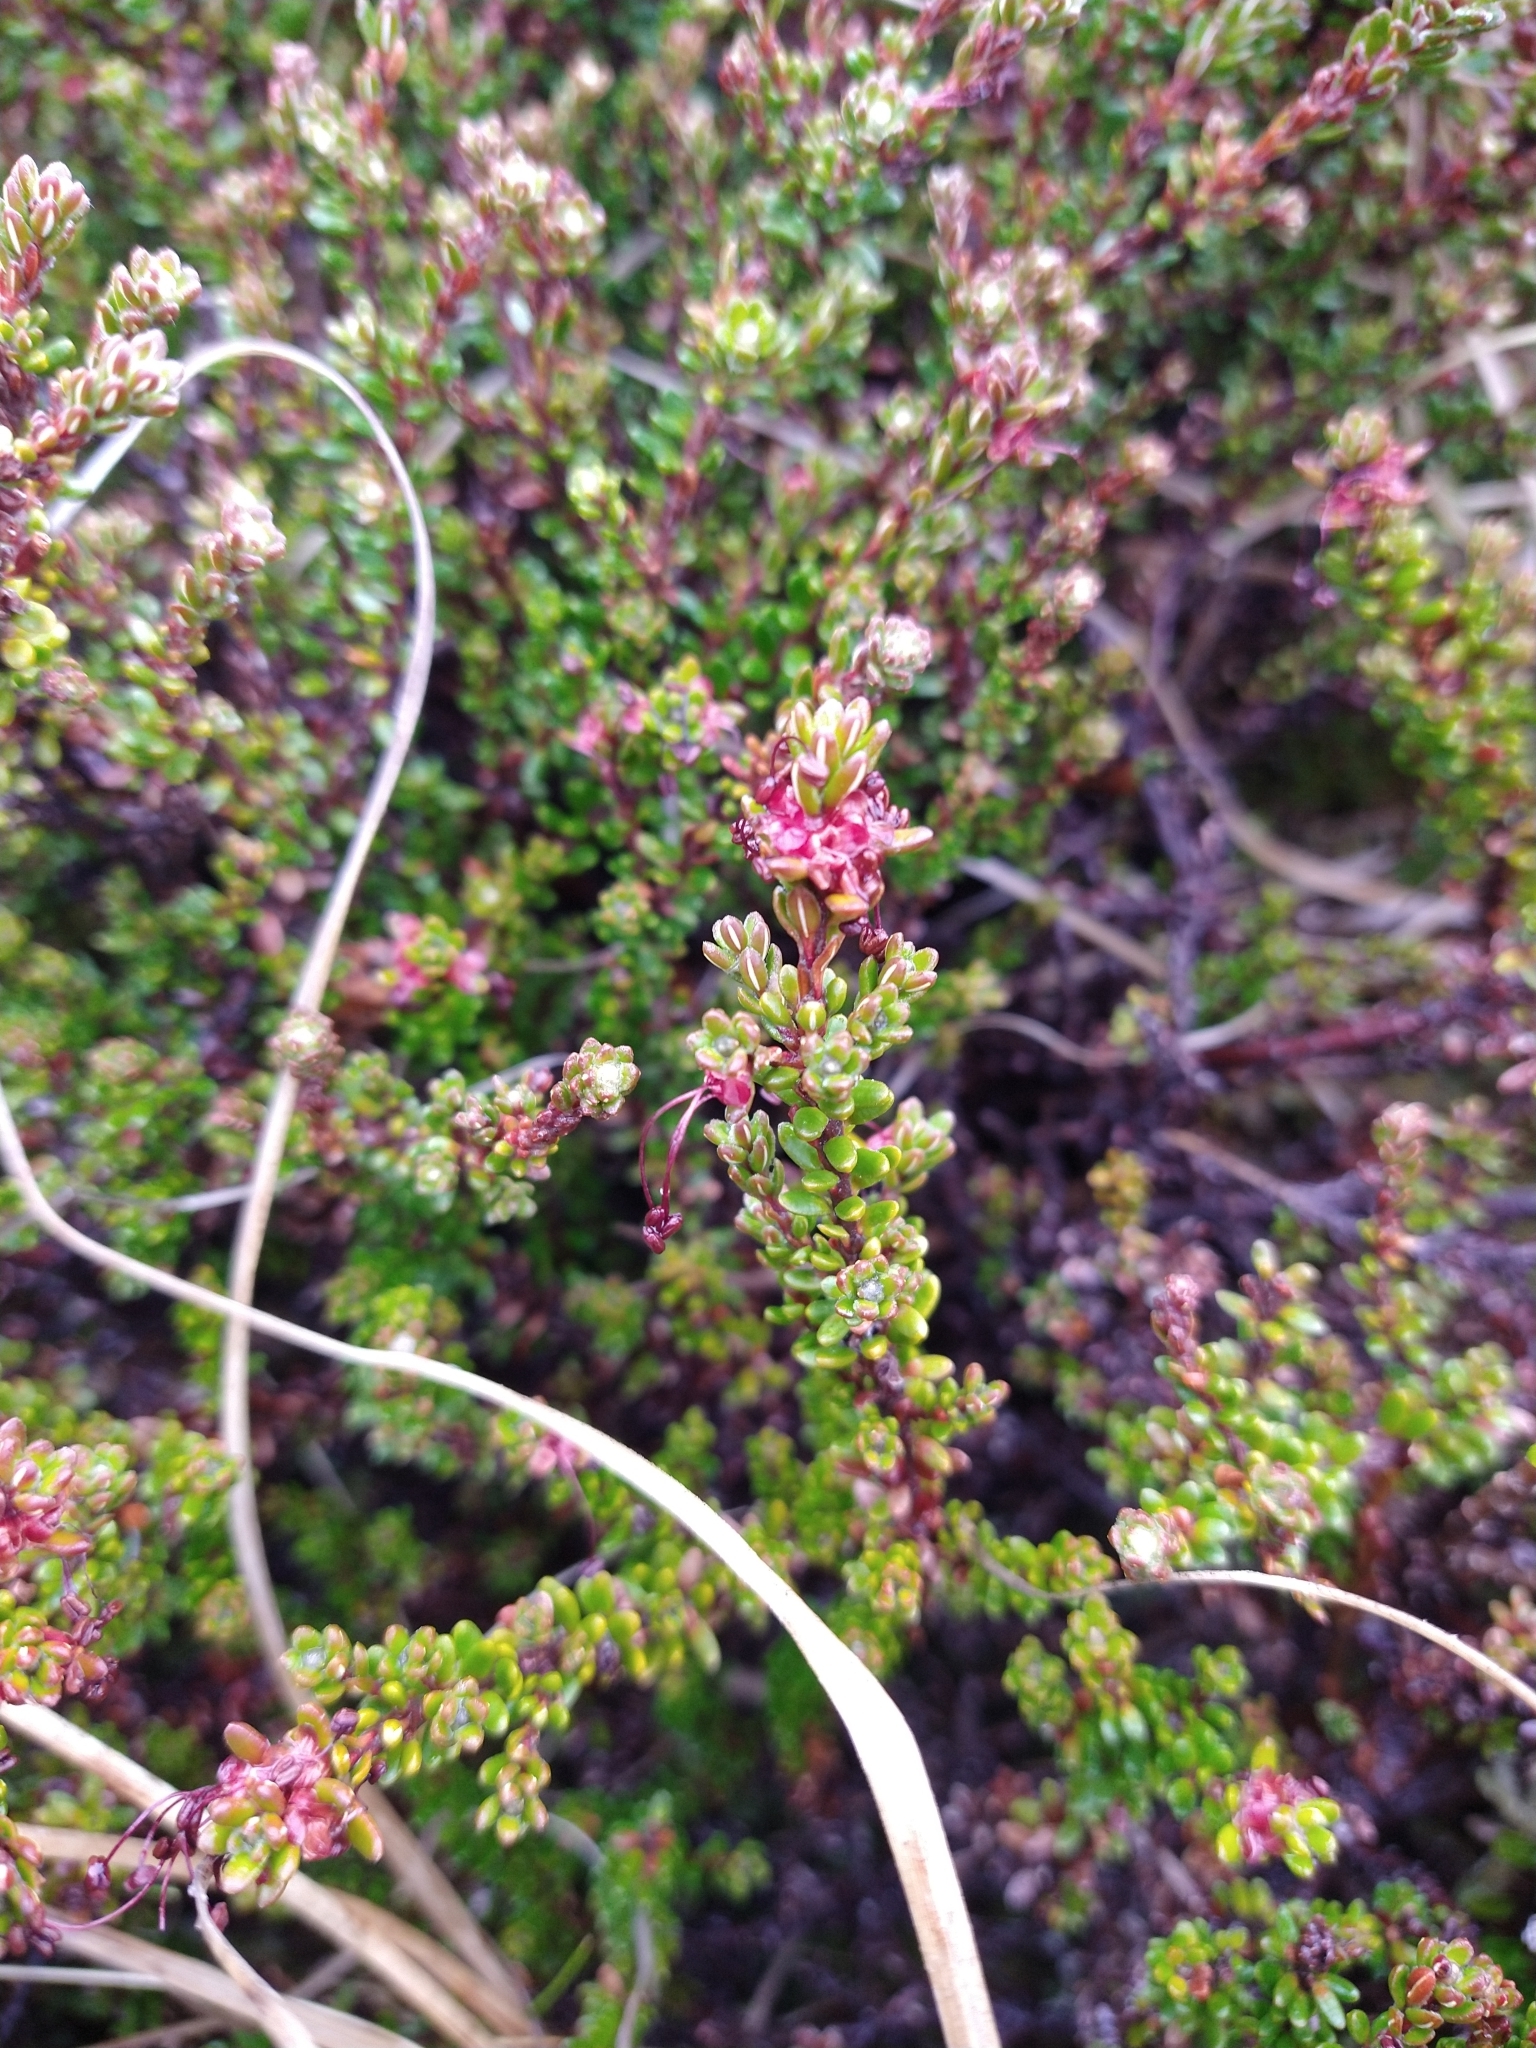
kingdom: Plantae
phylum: Tracheophyta
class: Magnoliopsida
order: Ericales
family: Ericaceae
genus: Empetrum
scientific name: Empetrum rubrum
